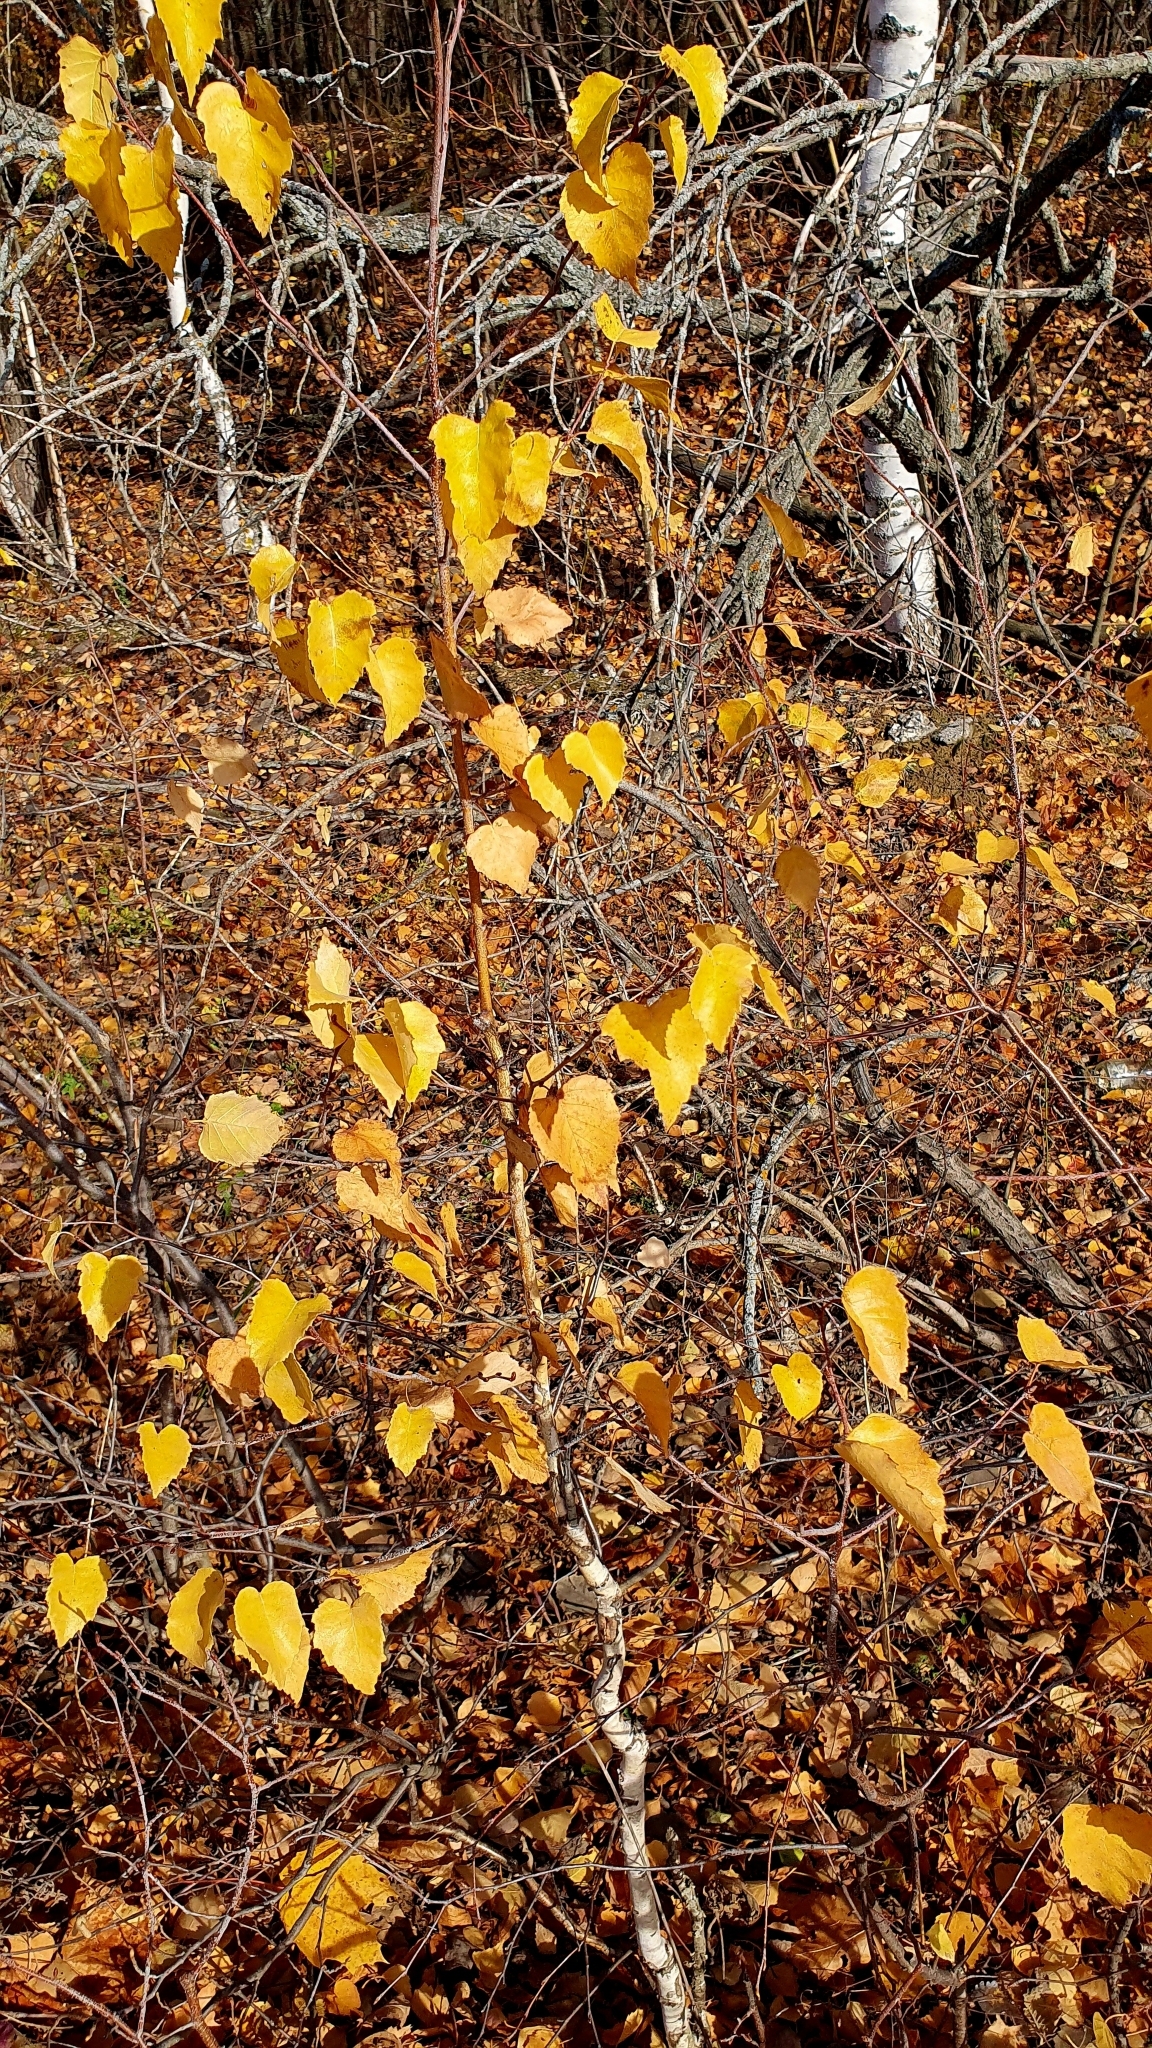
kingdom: Plantae
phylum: Tracheophyta
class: Magnoliopsida
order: Fagales
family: Betulaceae
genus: Betula
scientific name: Betula pendula
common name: Silver birch
